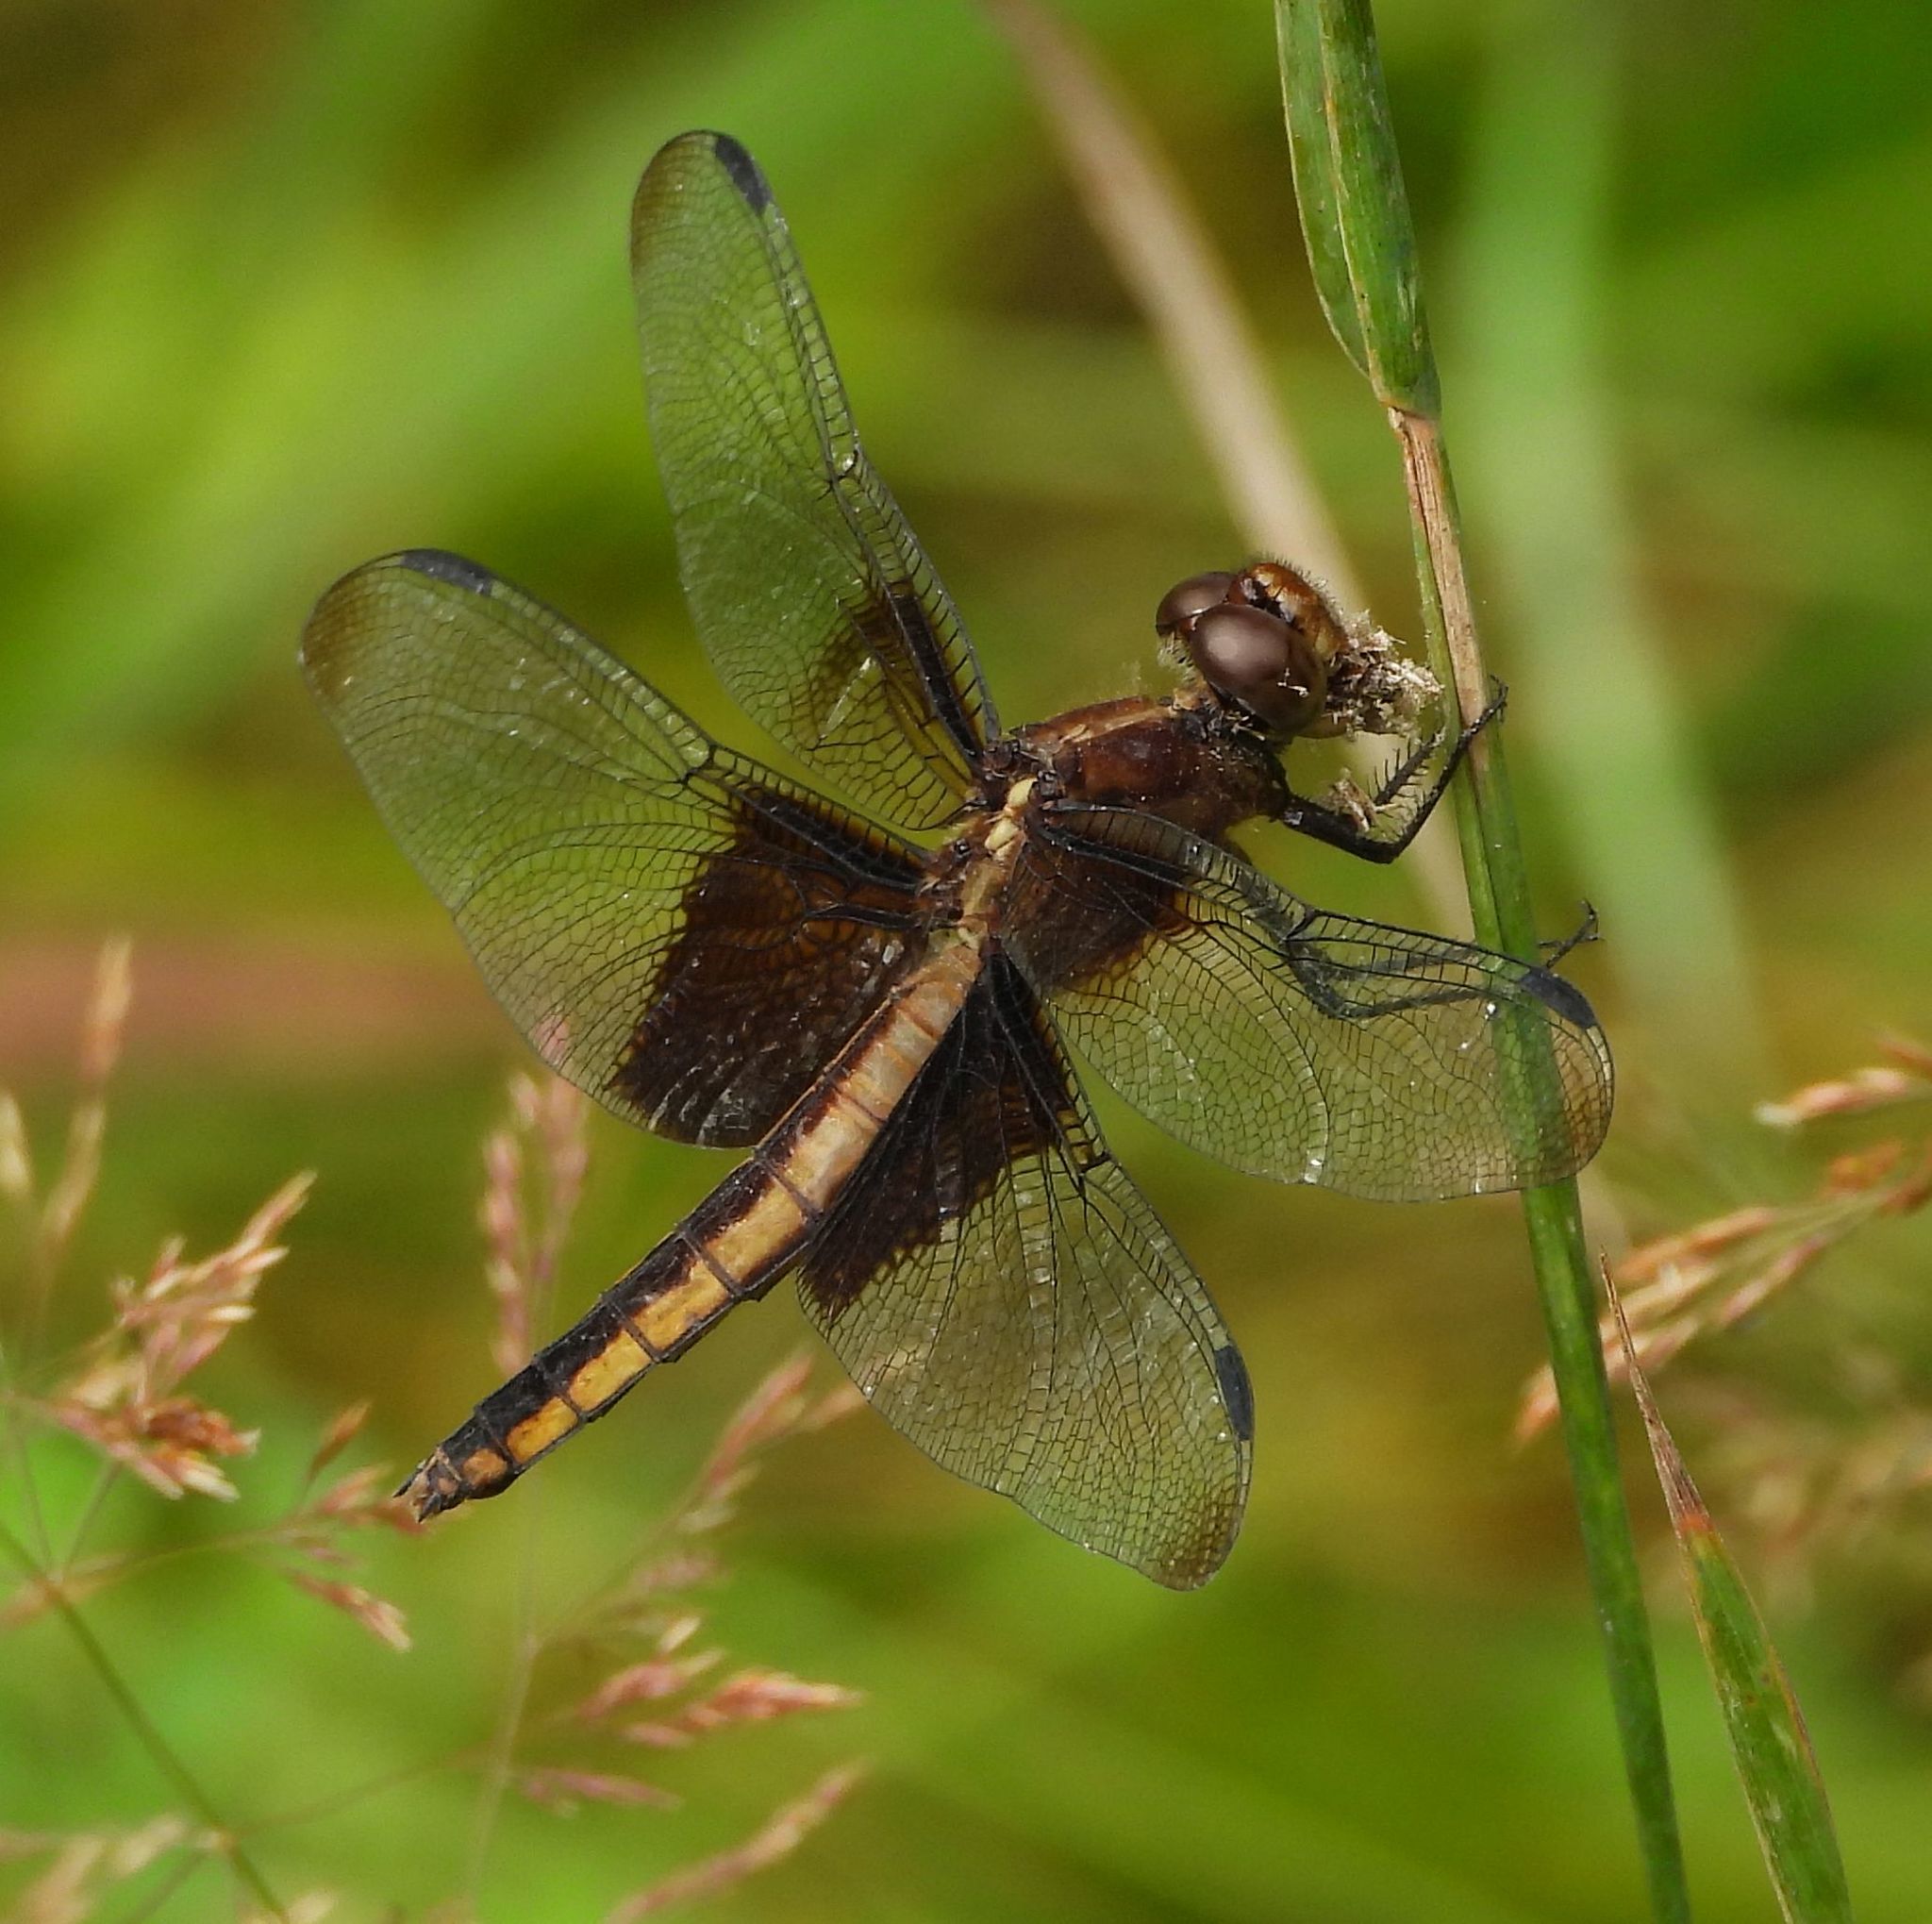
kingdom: Animalia
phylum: Arthropoda
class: Insecta
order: Odonata
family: Libellulidae
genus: Libellula
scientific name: Libellula luctuosa
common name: Widow skimmer
